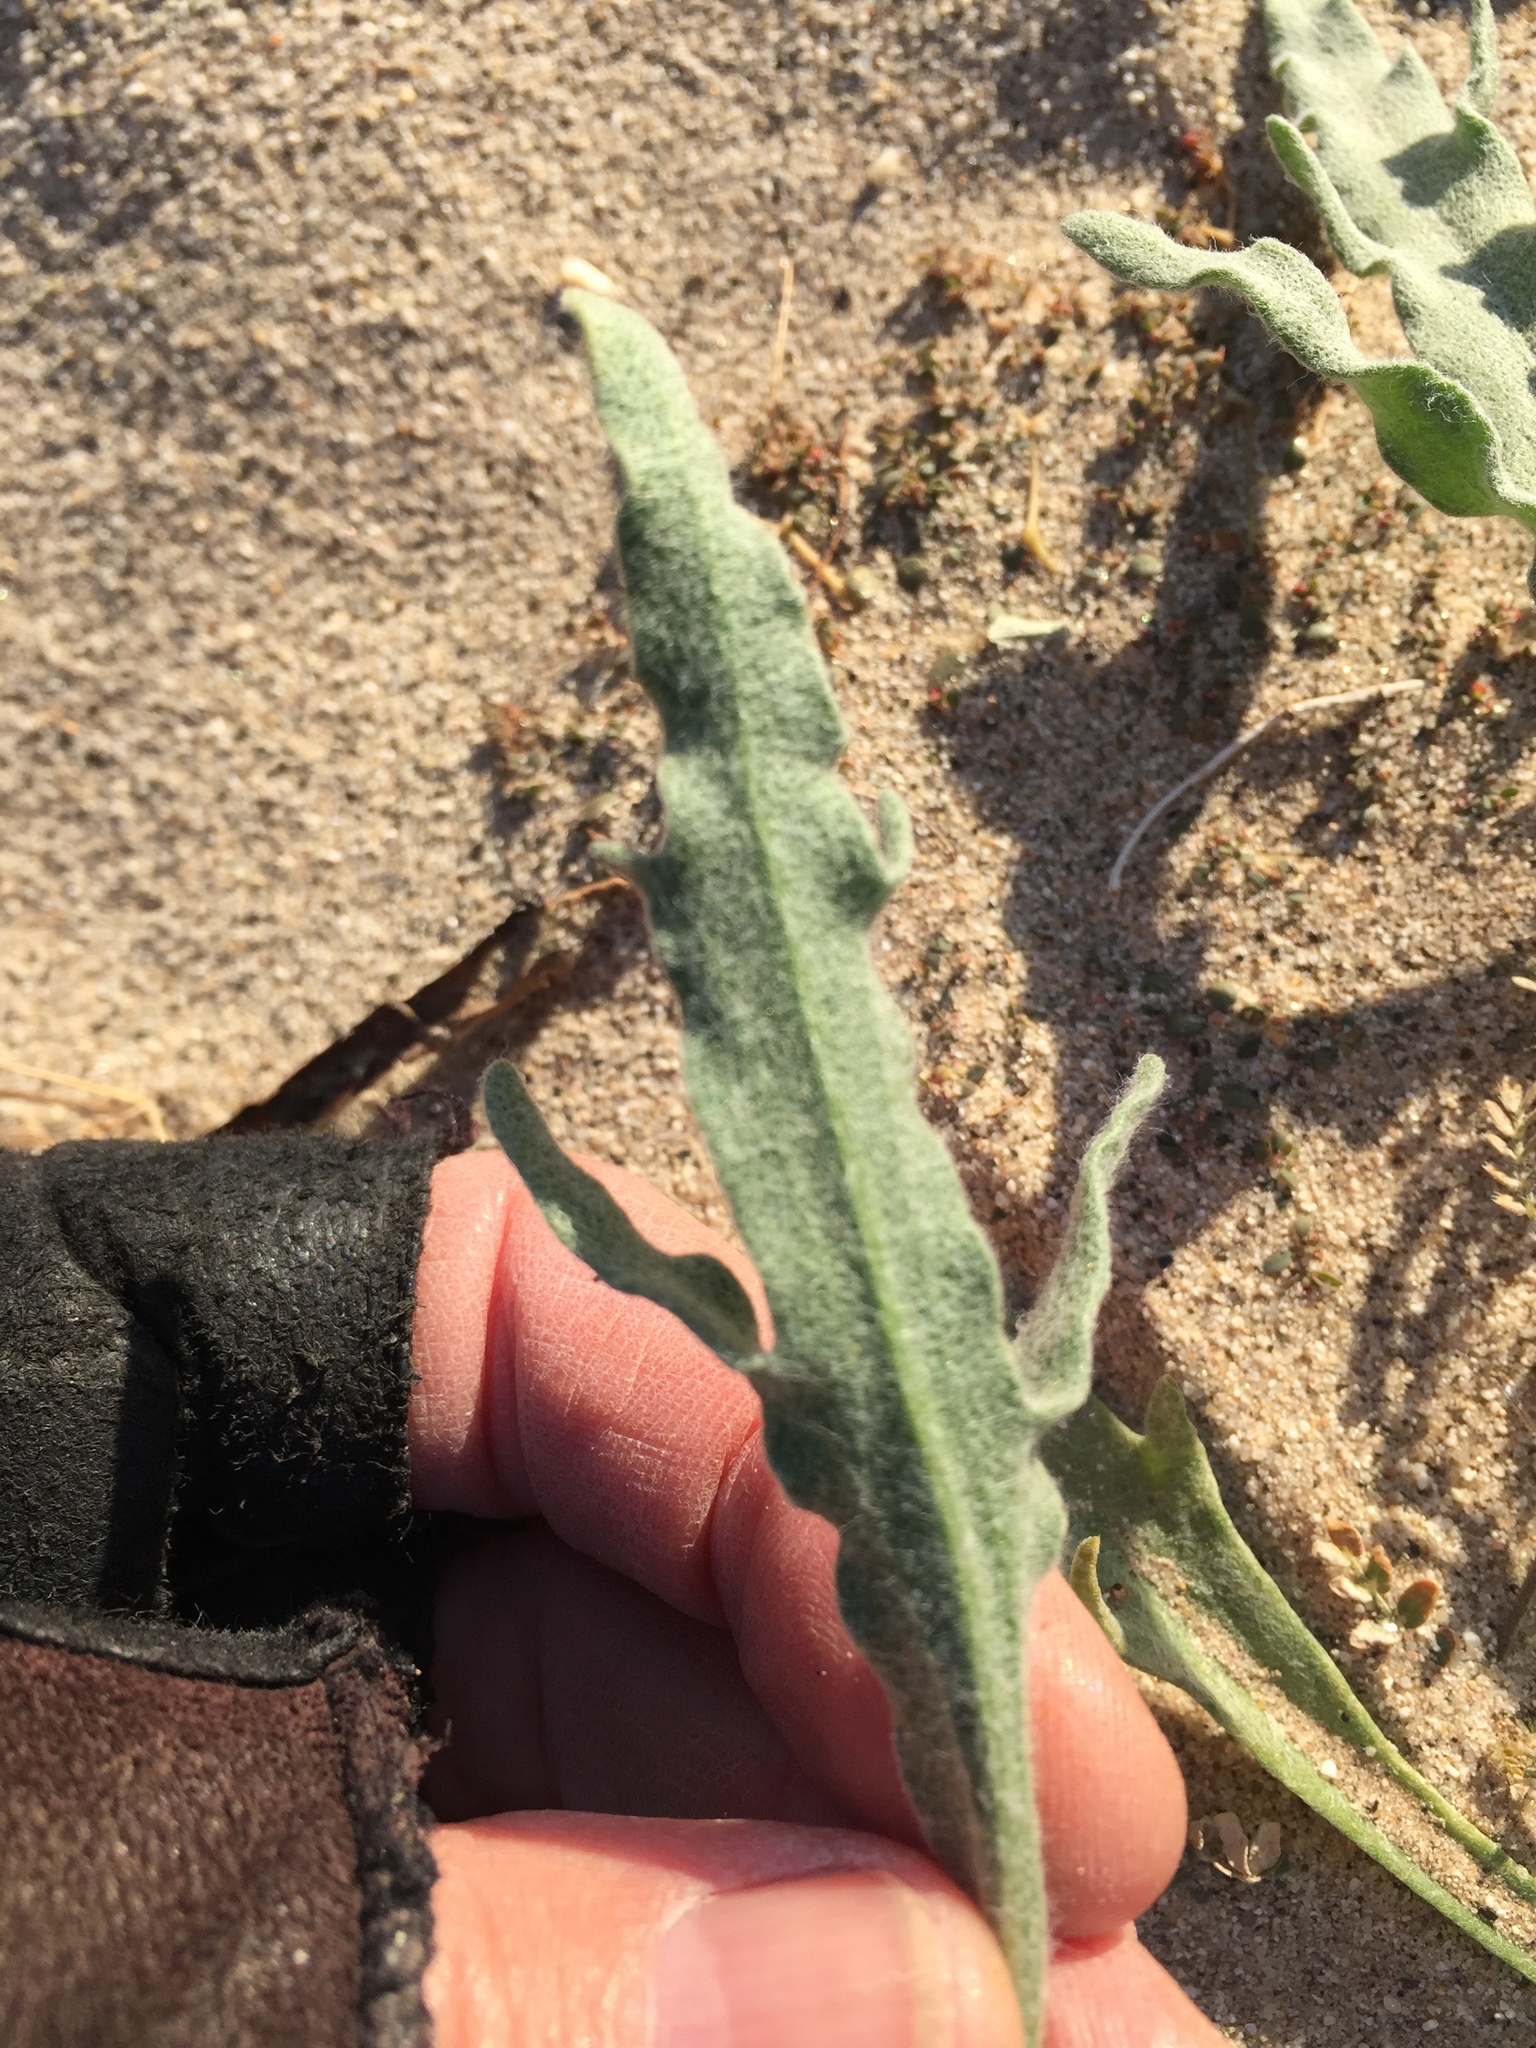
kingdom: Plantae
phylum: Tracheophyta
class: Magnoliopsida
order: Asterales
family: Asteraceae
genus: Baileya
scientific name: Baileya pauciradiata
